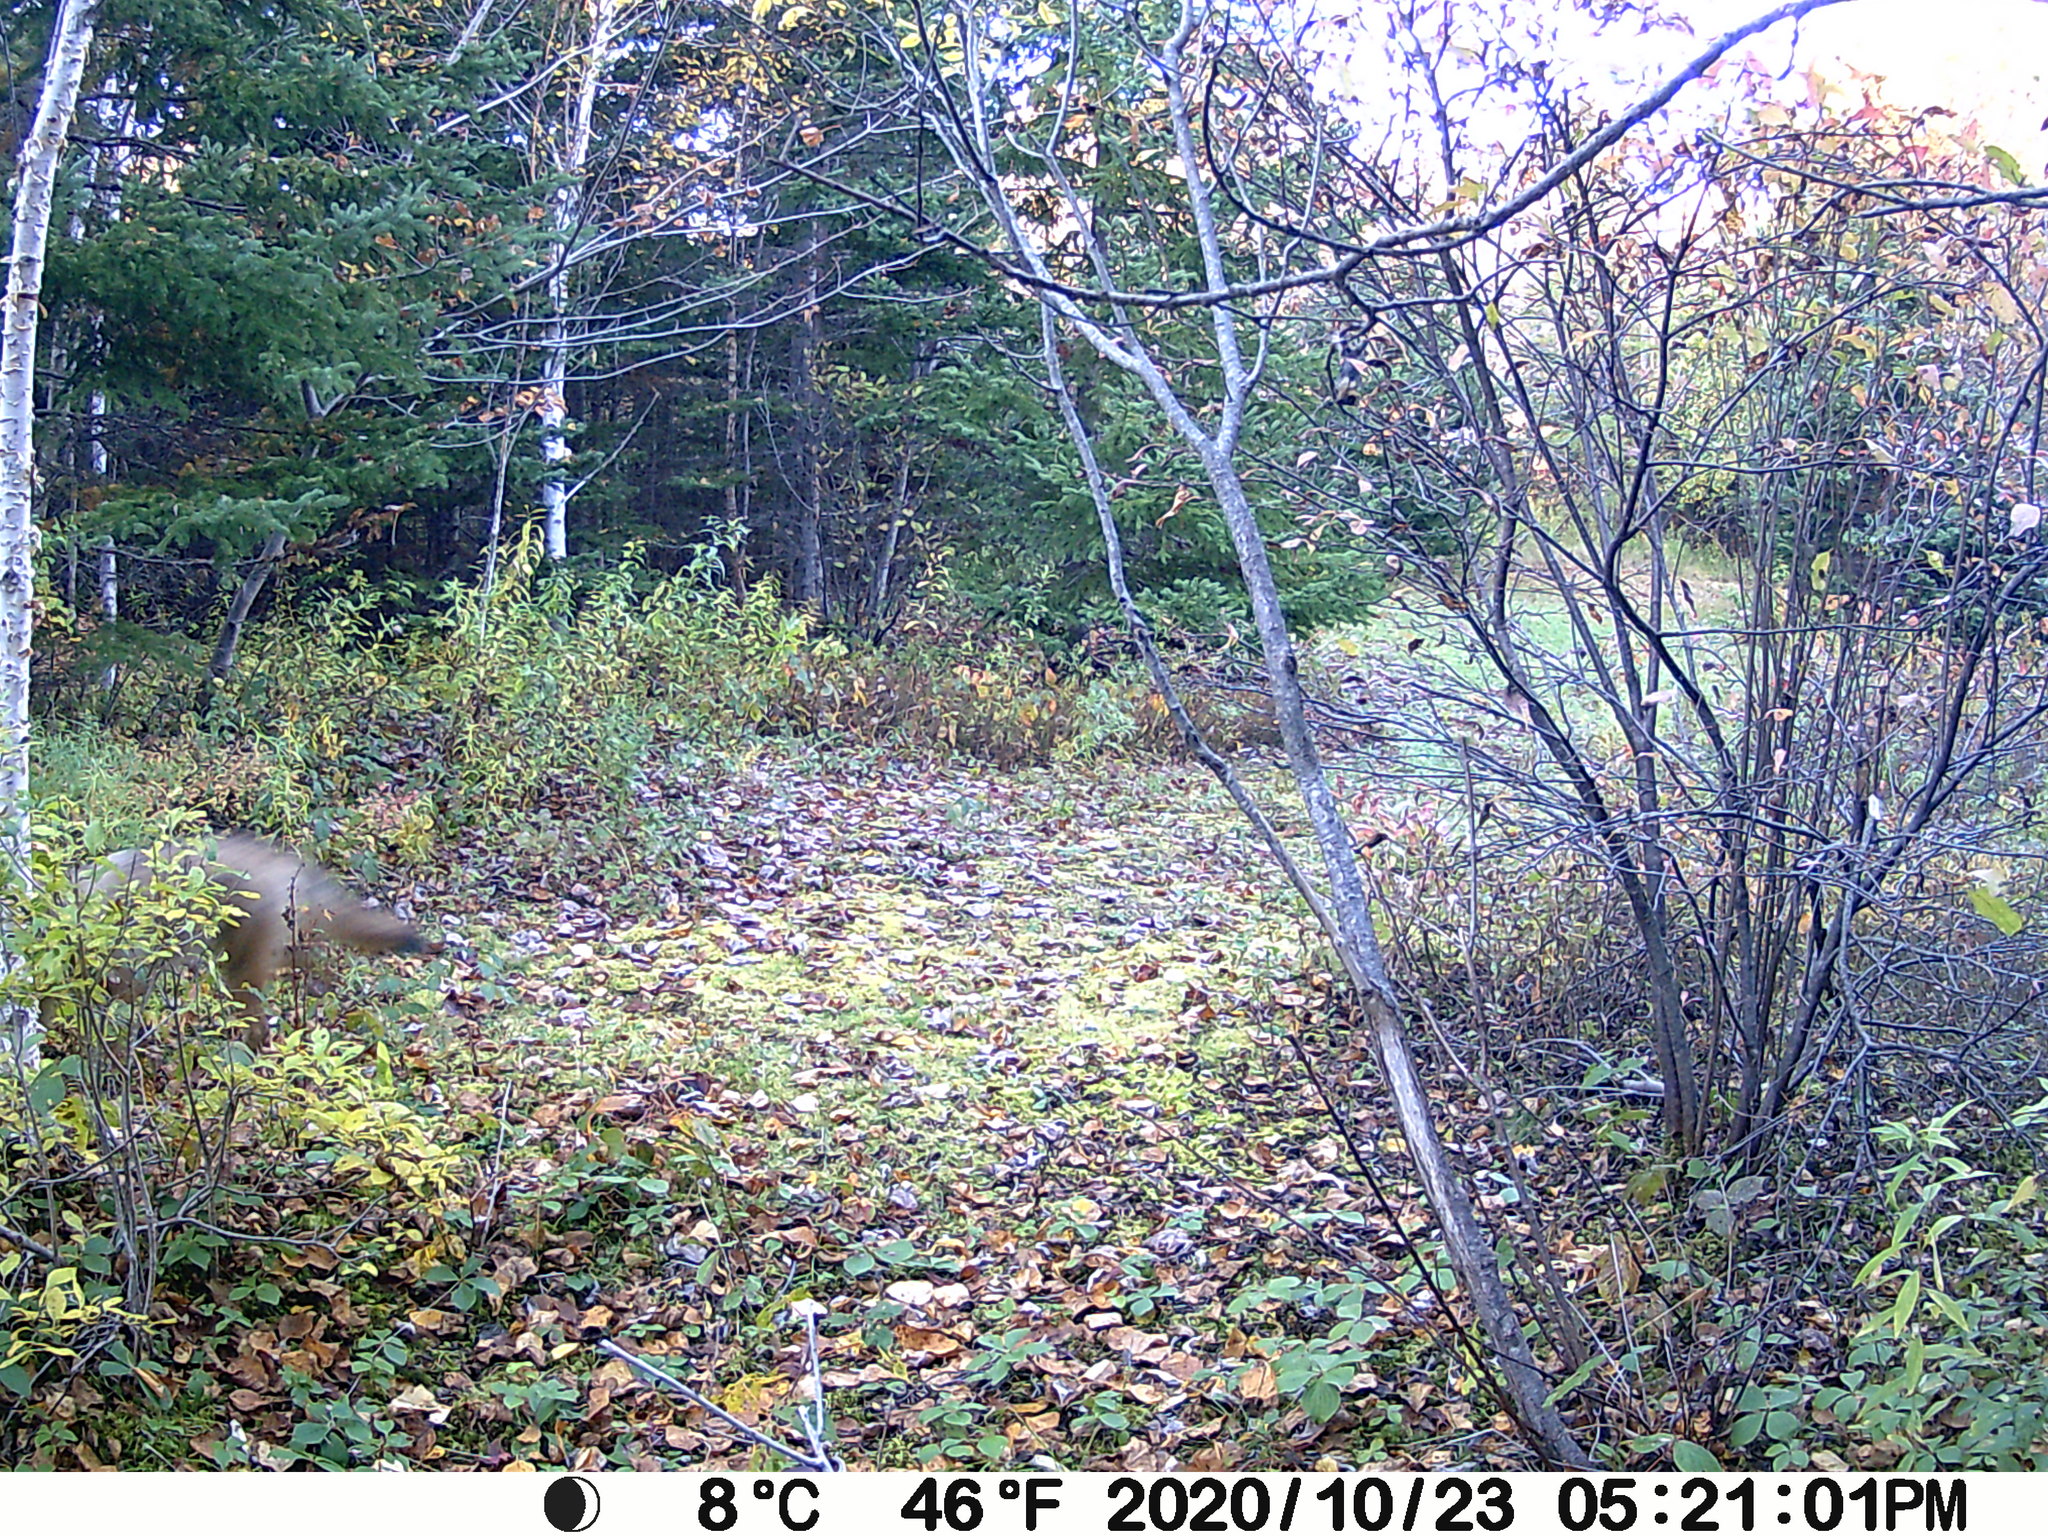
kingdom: Animalia
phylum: Chordata
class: Mammalia
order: Carnivora
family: Canidae
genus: Canis
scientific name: Canis latrans
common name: Coyote
